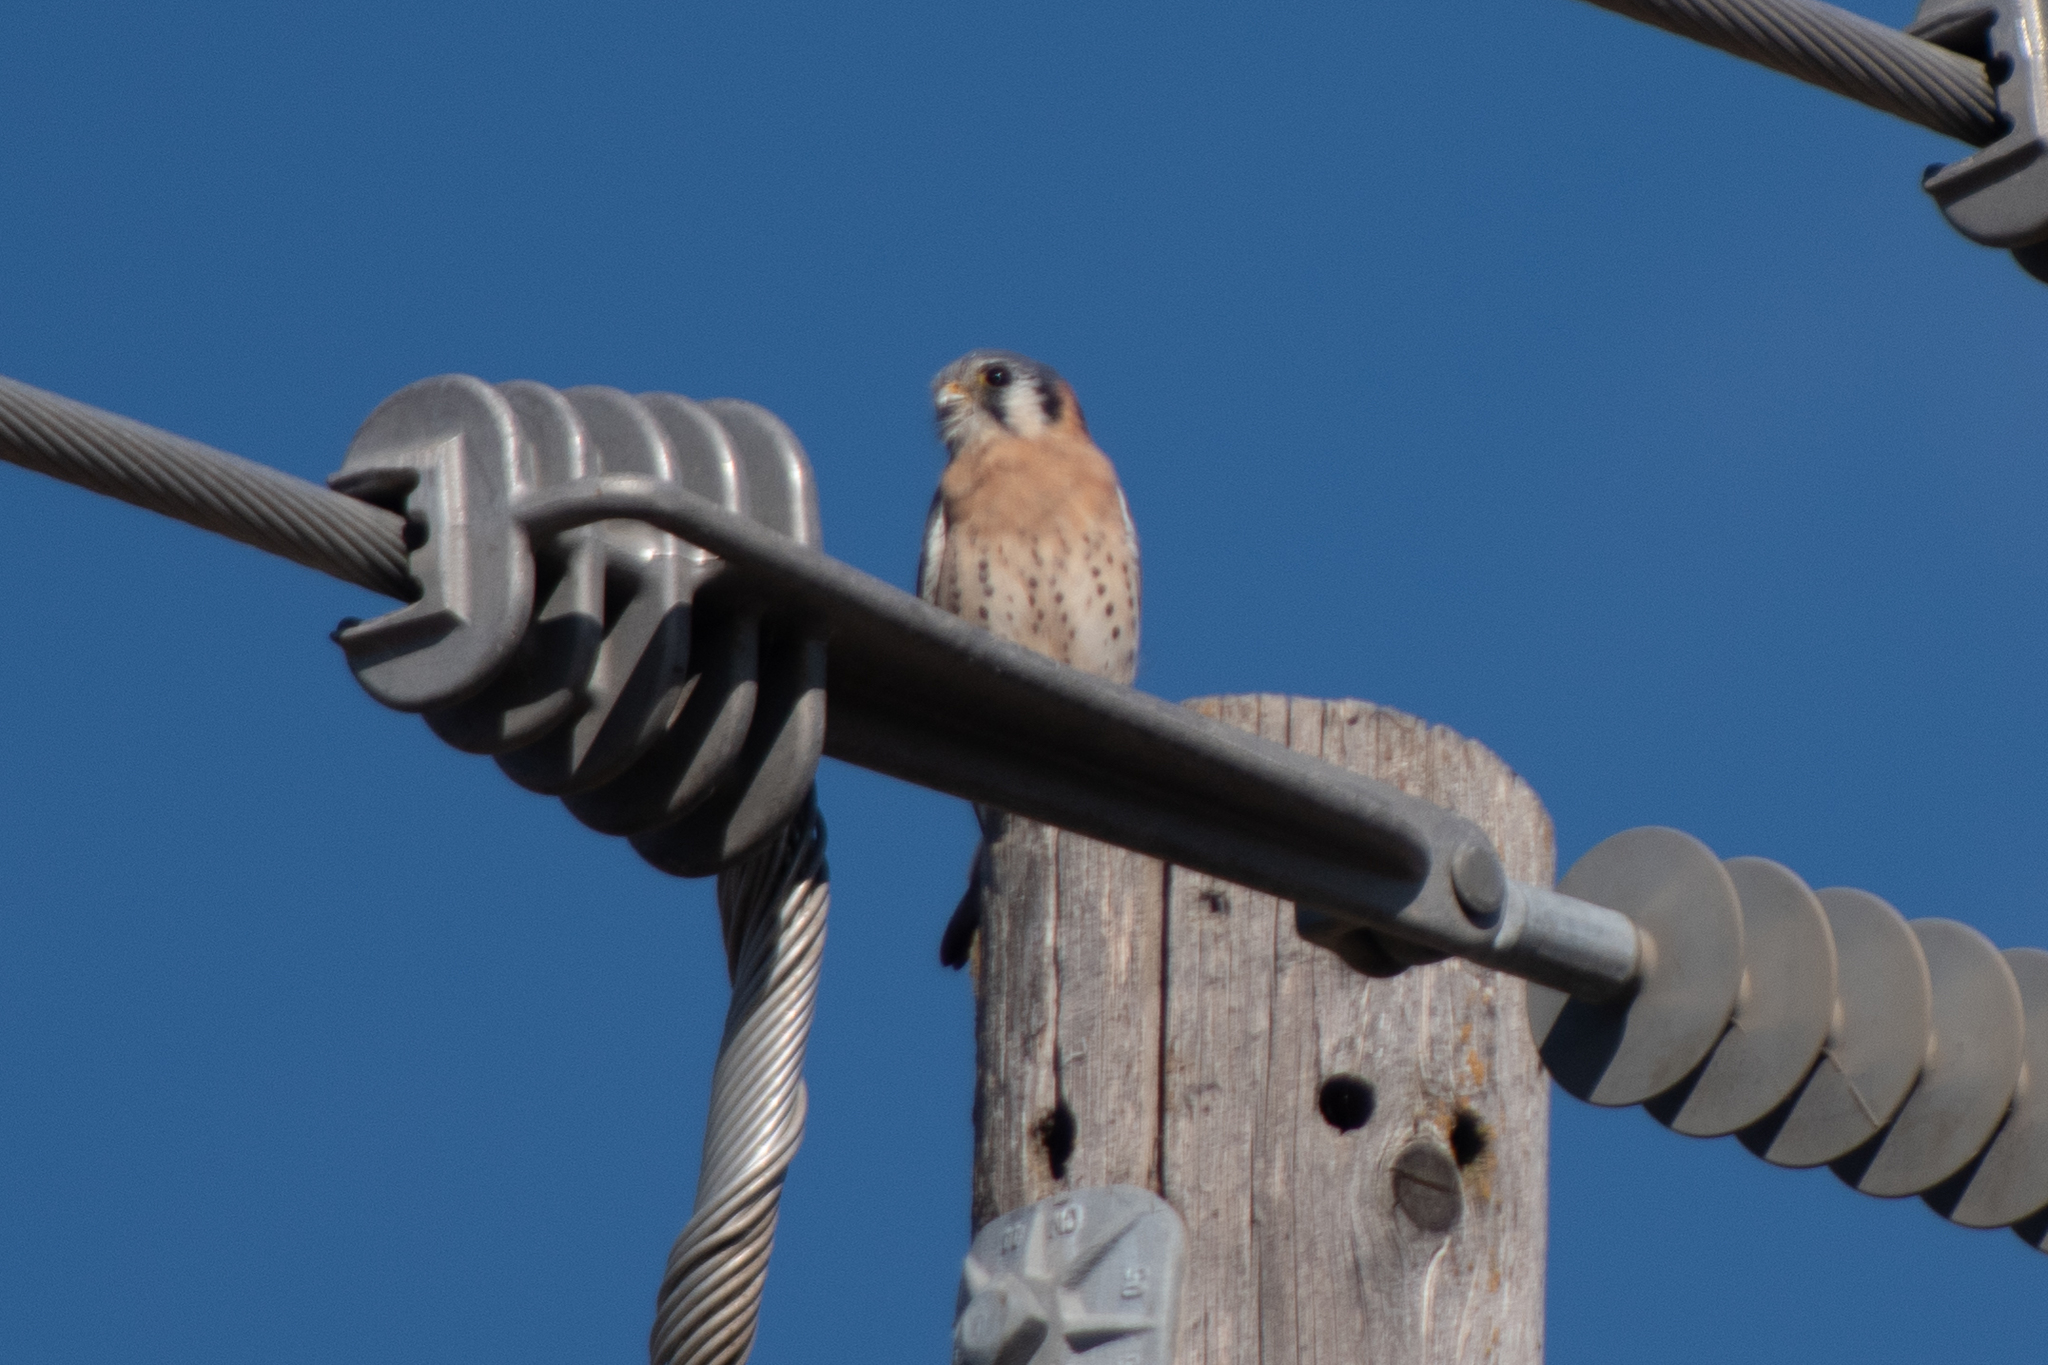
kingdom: Animalia
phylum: Chordata
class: Aves
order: Falconiformes
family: Falconidae
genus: Falco
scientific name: Falco sparverius
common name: American kestrel
